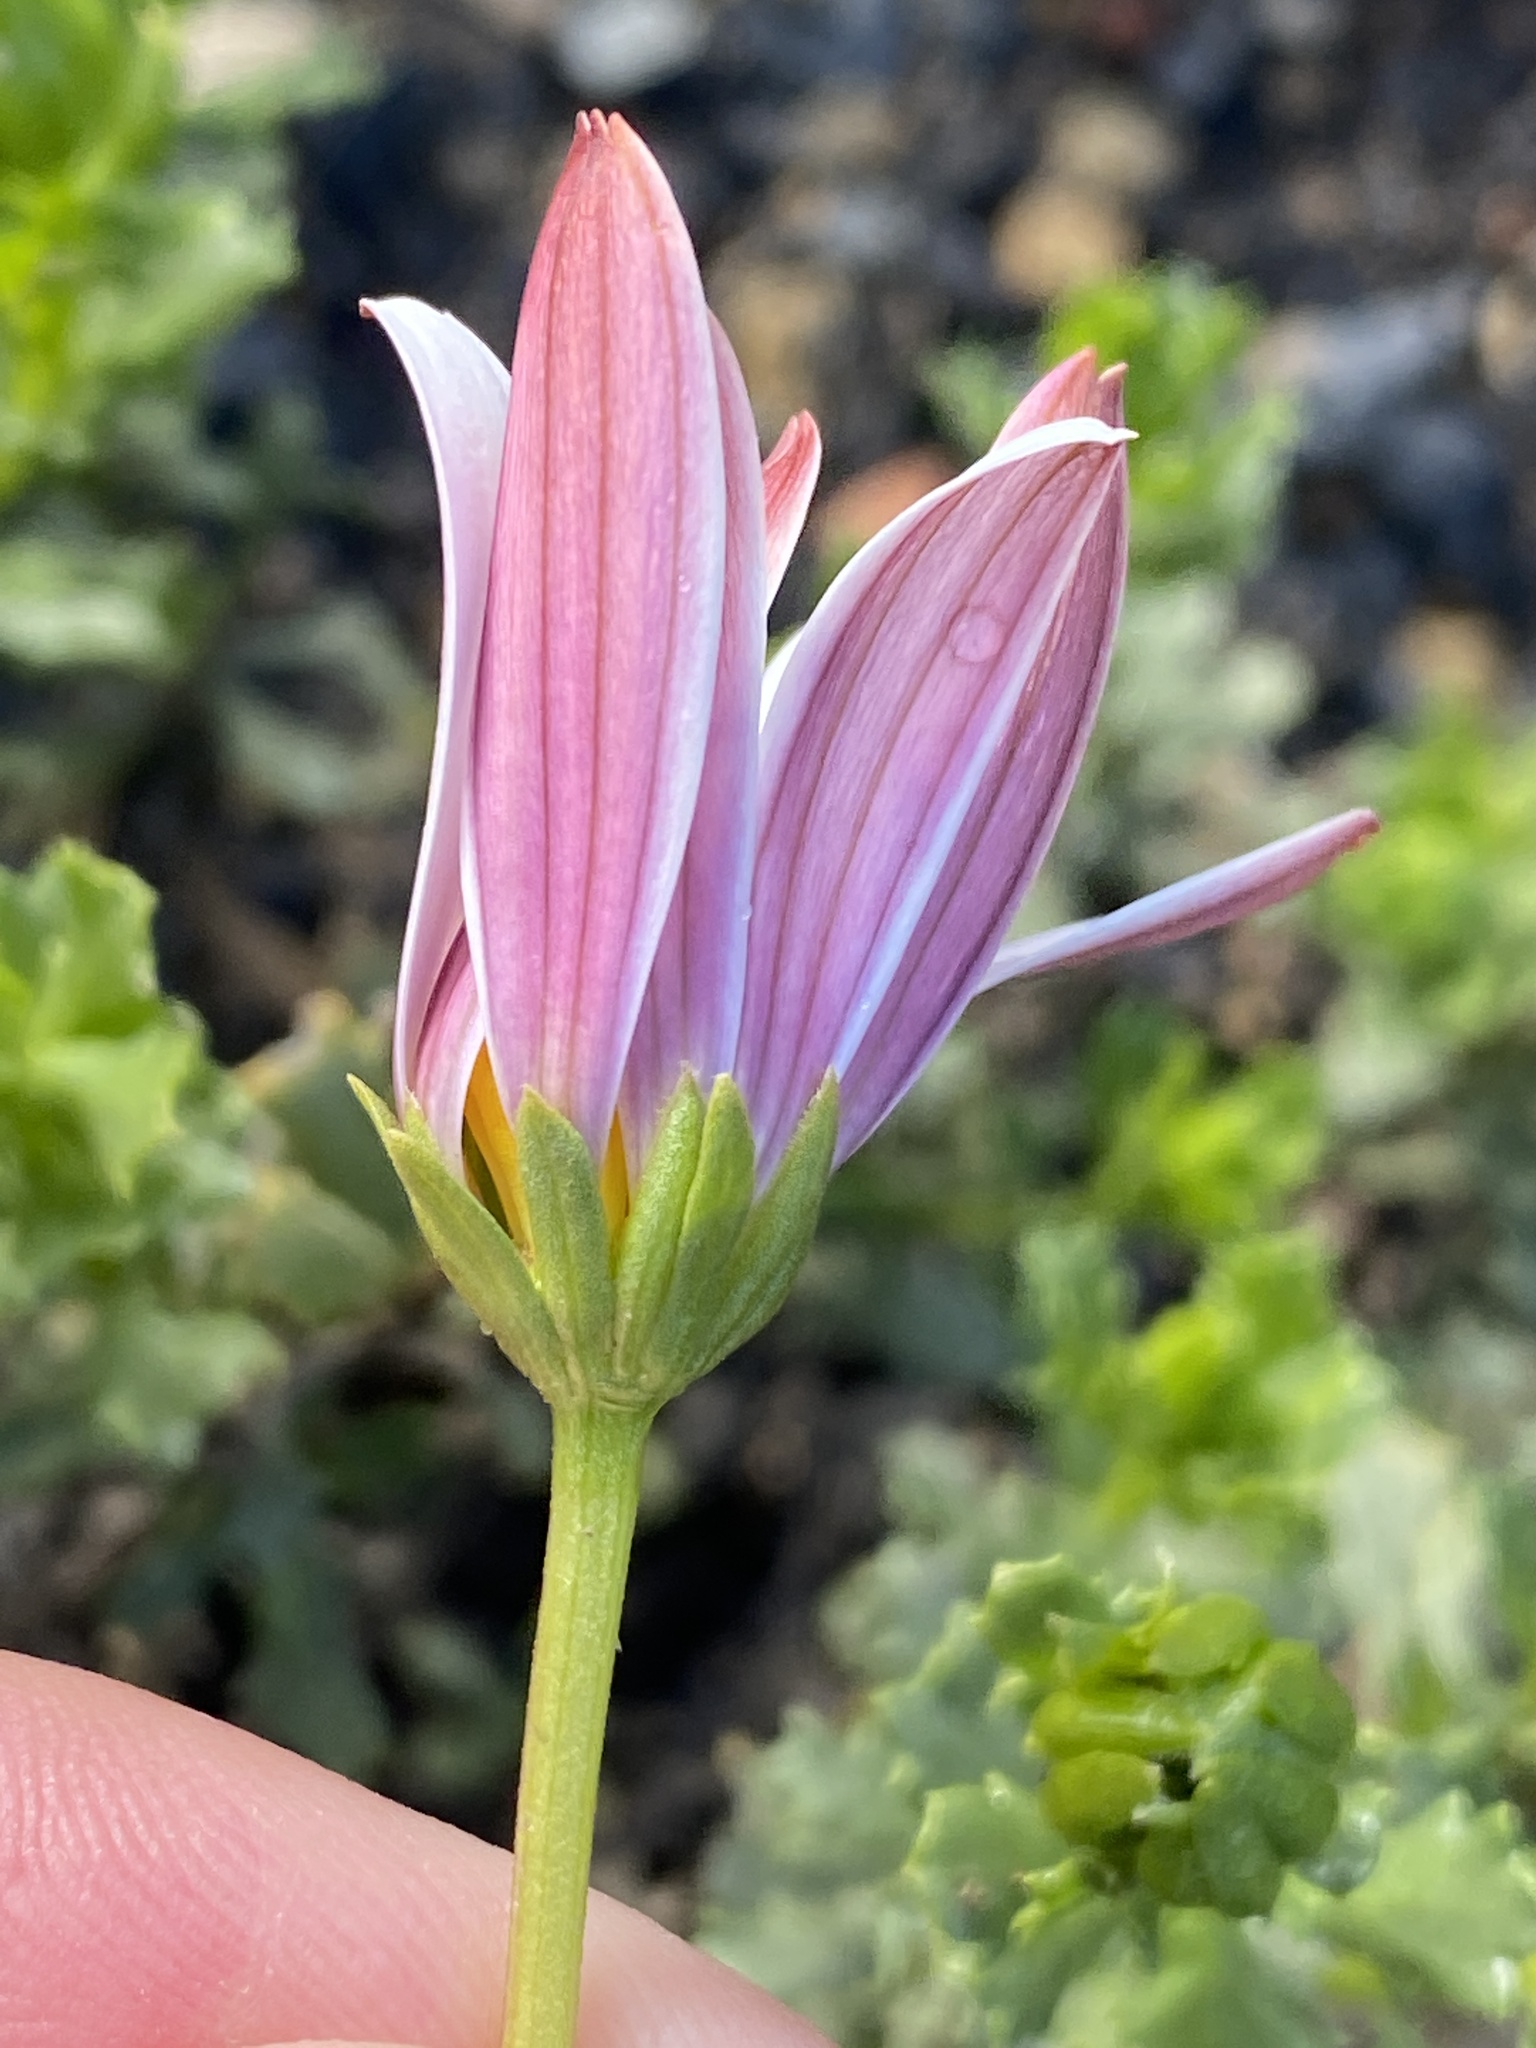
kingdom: Plantae
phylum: Tracheophyta
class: Magnoliopsida
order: Asterales
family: Asteraceae
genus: Dimorphotheca
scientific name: Dimorphotheca cuneata
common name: Daisy
